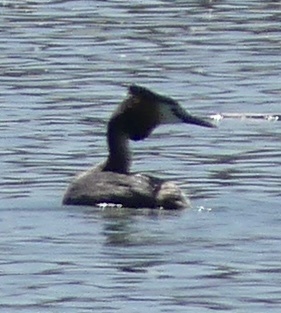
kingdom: Animalia
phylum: Chordata
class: Aves
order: Podicipediformes
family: Podicipedidae
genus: Podiceps
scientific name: Podiceps cristatus
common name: Great crested grebe
